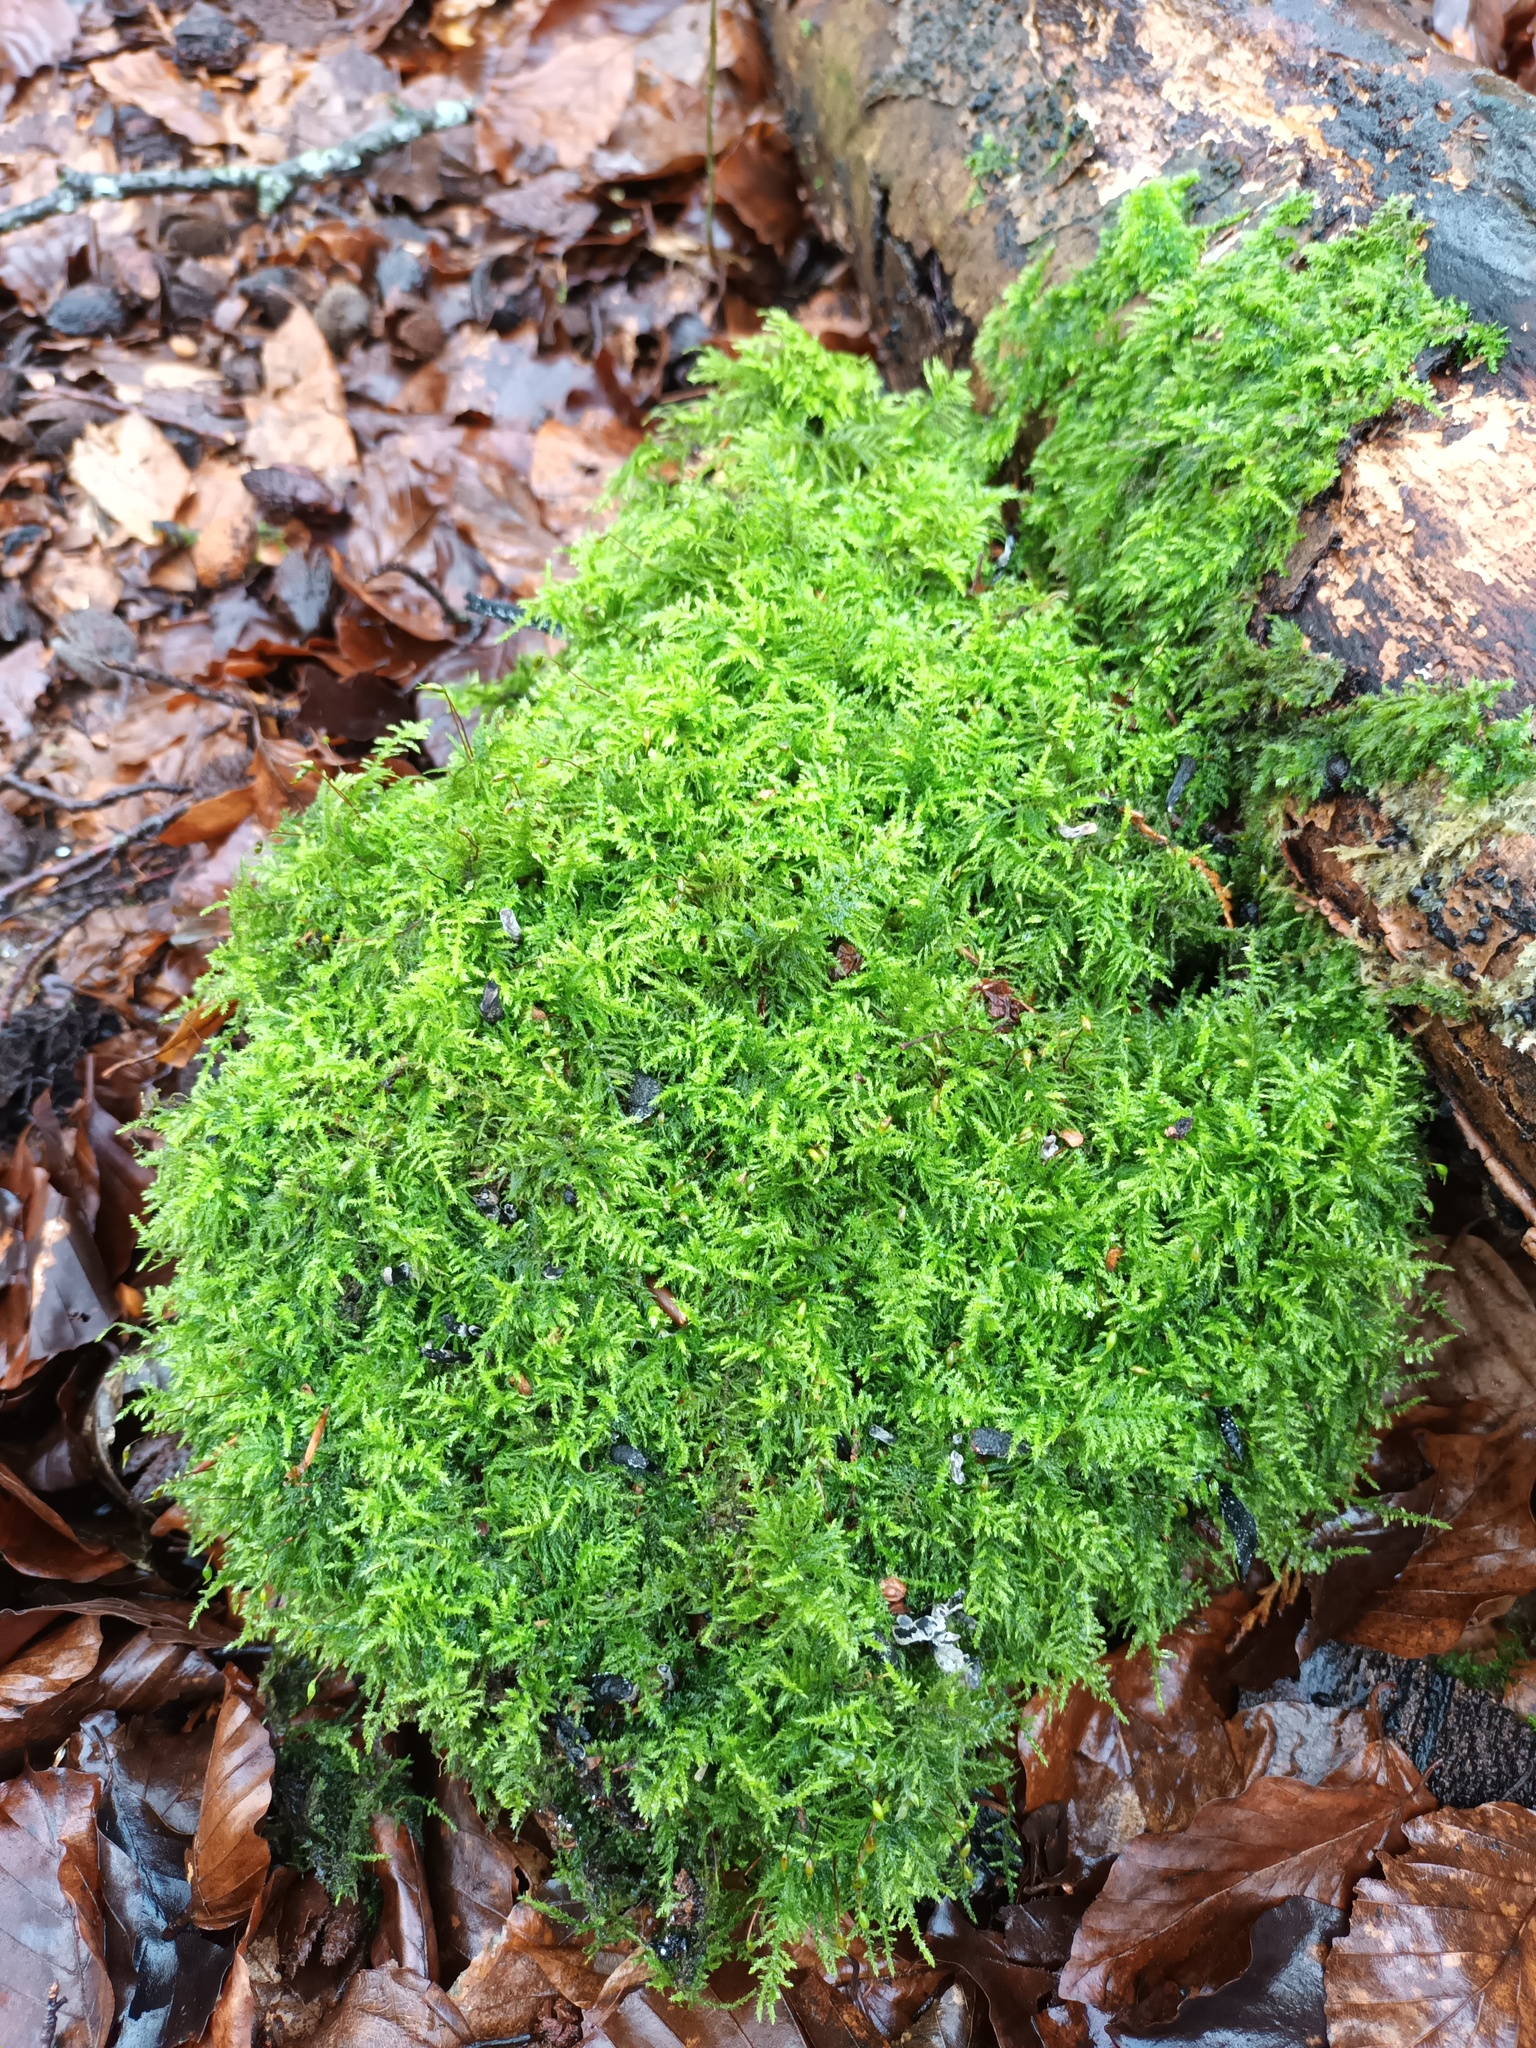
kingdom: Plantae
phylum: Bryophyta
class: Bryopsida
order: Hypnales
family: Brachytheciaceae
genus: Kindbergia
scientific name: Kindbergia praelonga
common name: Slender beaked moss
